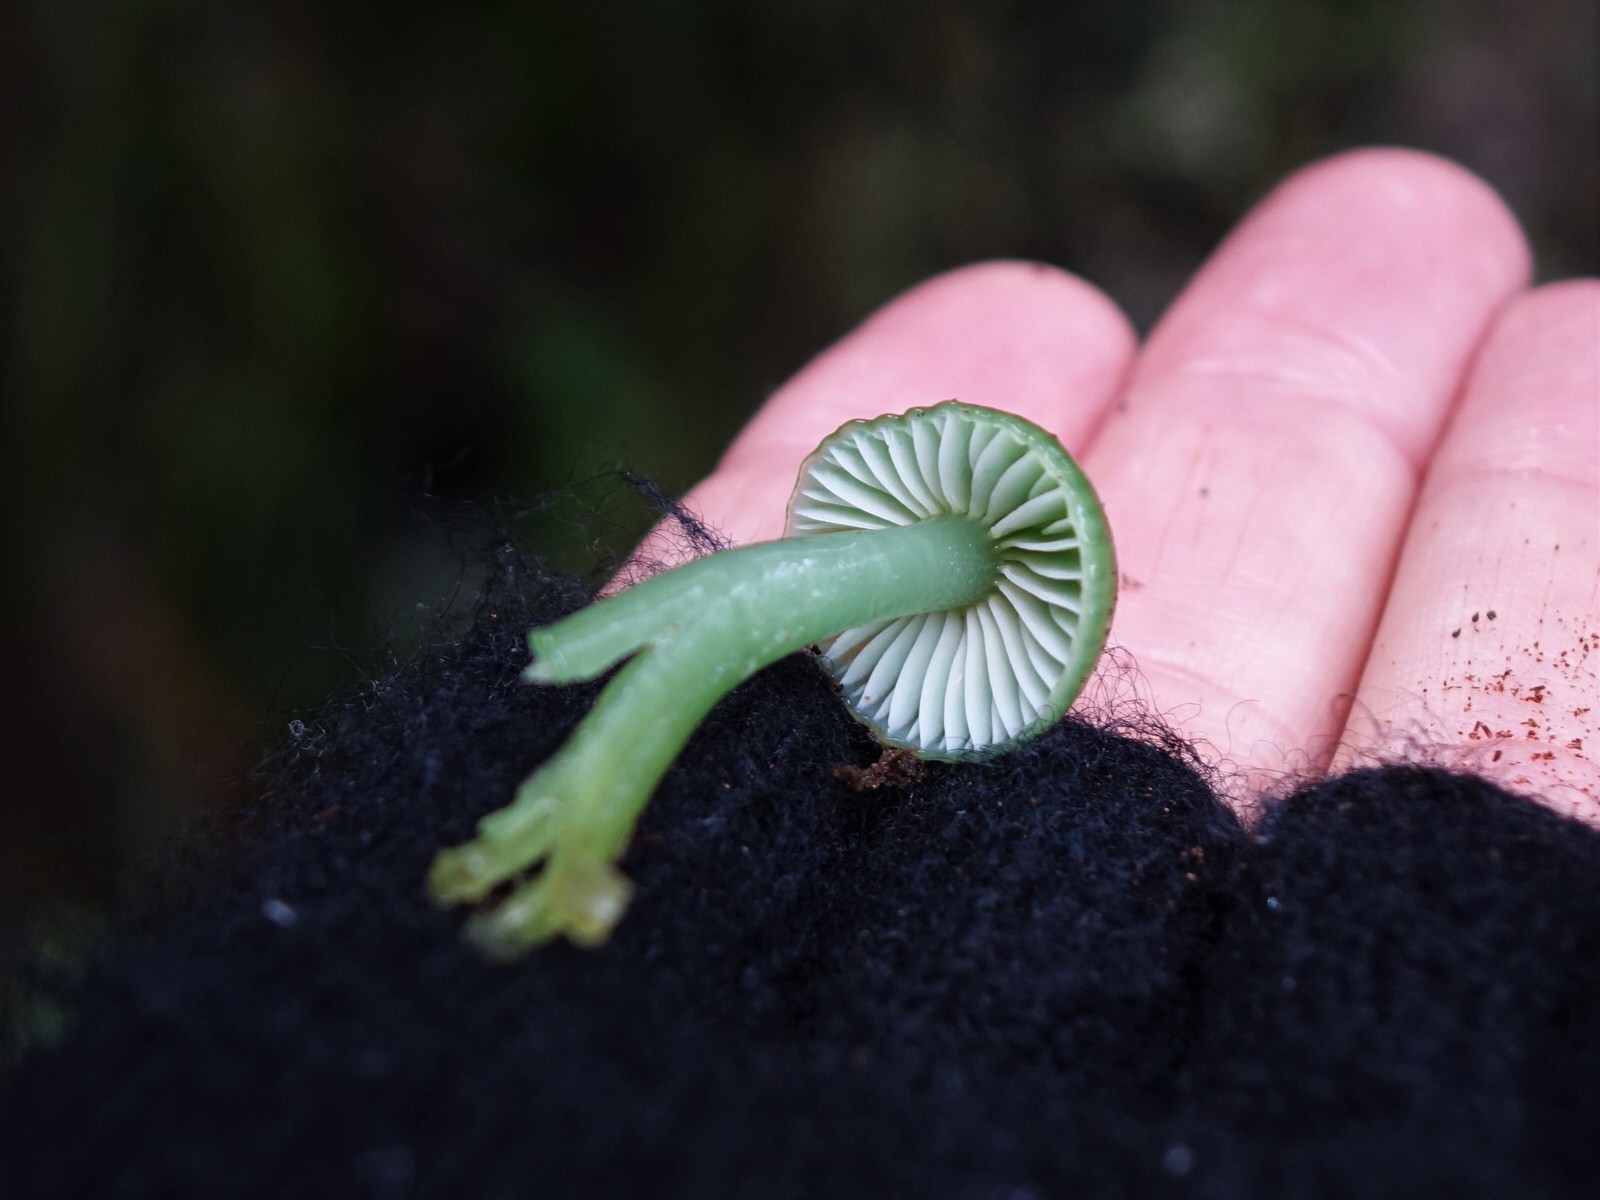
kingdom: Fungi
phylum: Basidiomycota
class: Agaricomycetes
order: Agaricales
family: Hygrophoraceae
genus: Gliophorus
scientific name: Gliophorus viridis
